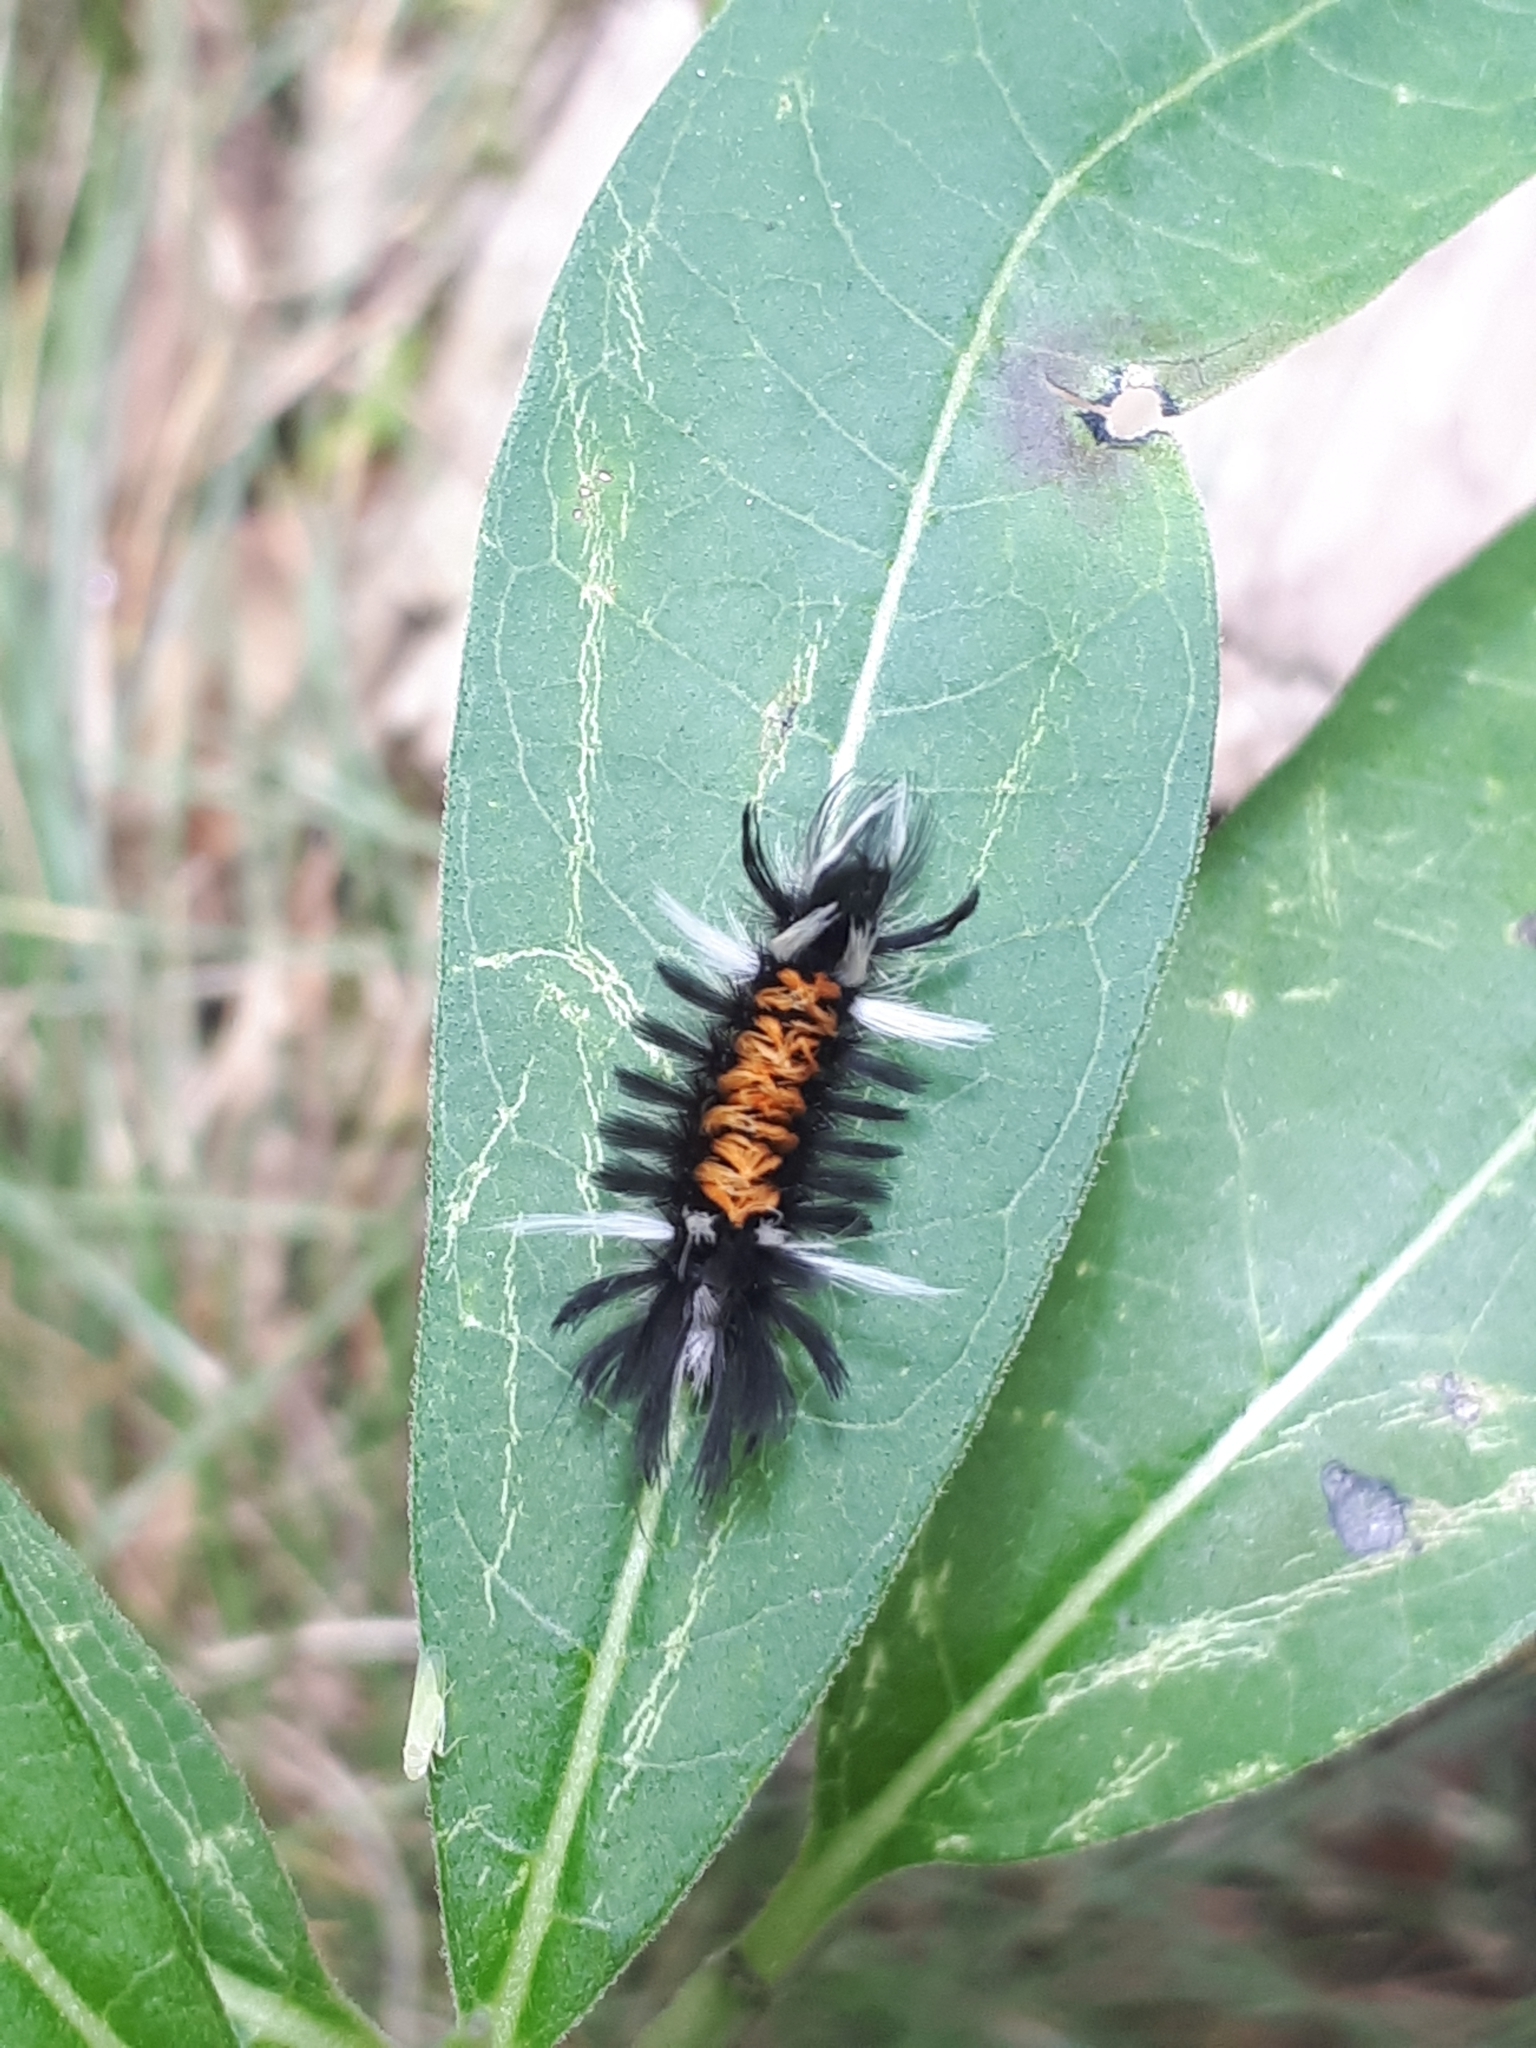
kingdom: Animalia
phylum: Arthropoda
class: Insecta
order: Lepidoptera
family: Erebidae
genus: Euchaetes
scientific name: Euchaetes egle
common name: Milkweed tussock moth
